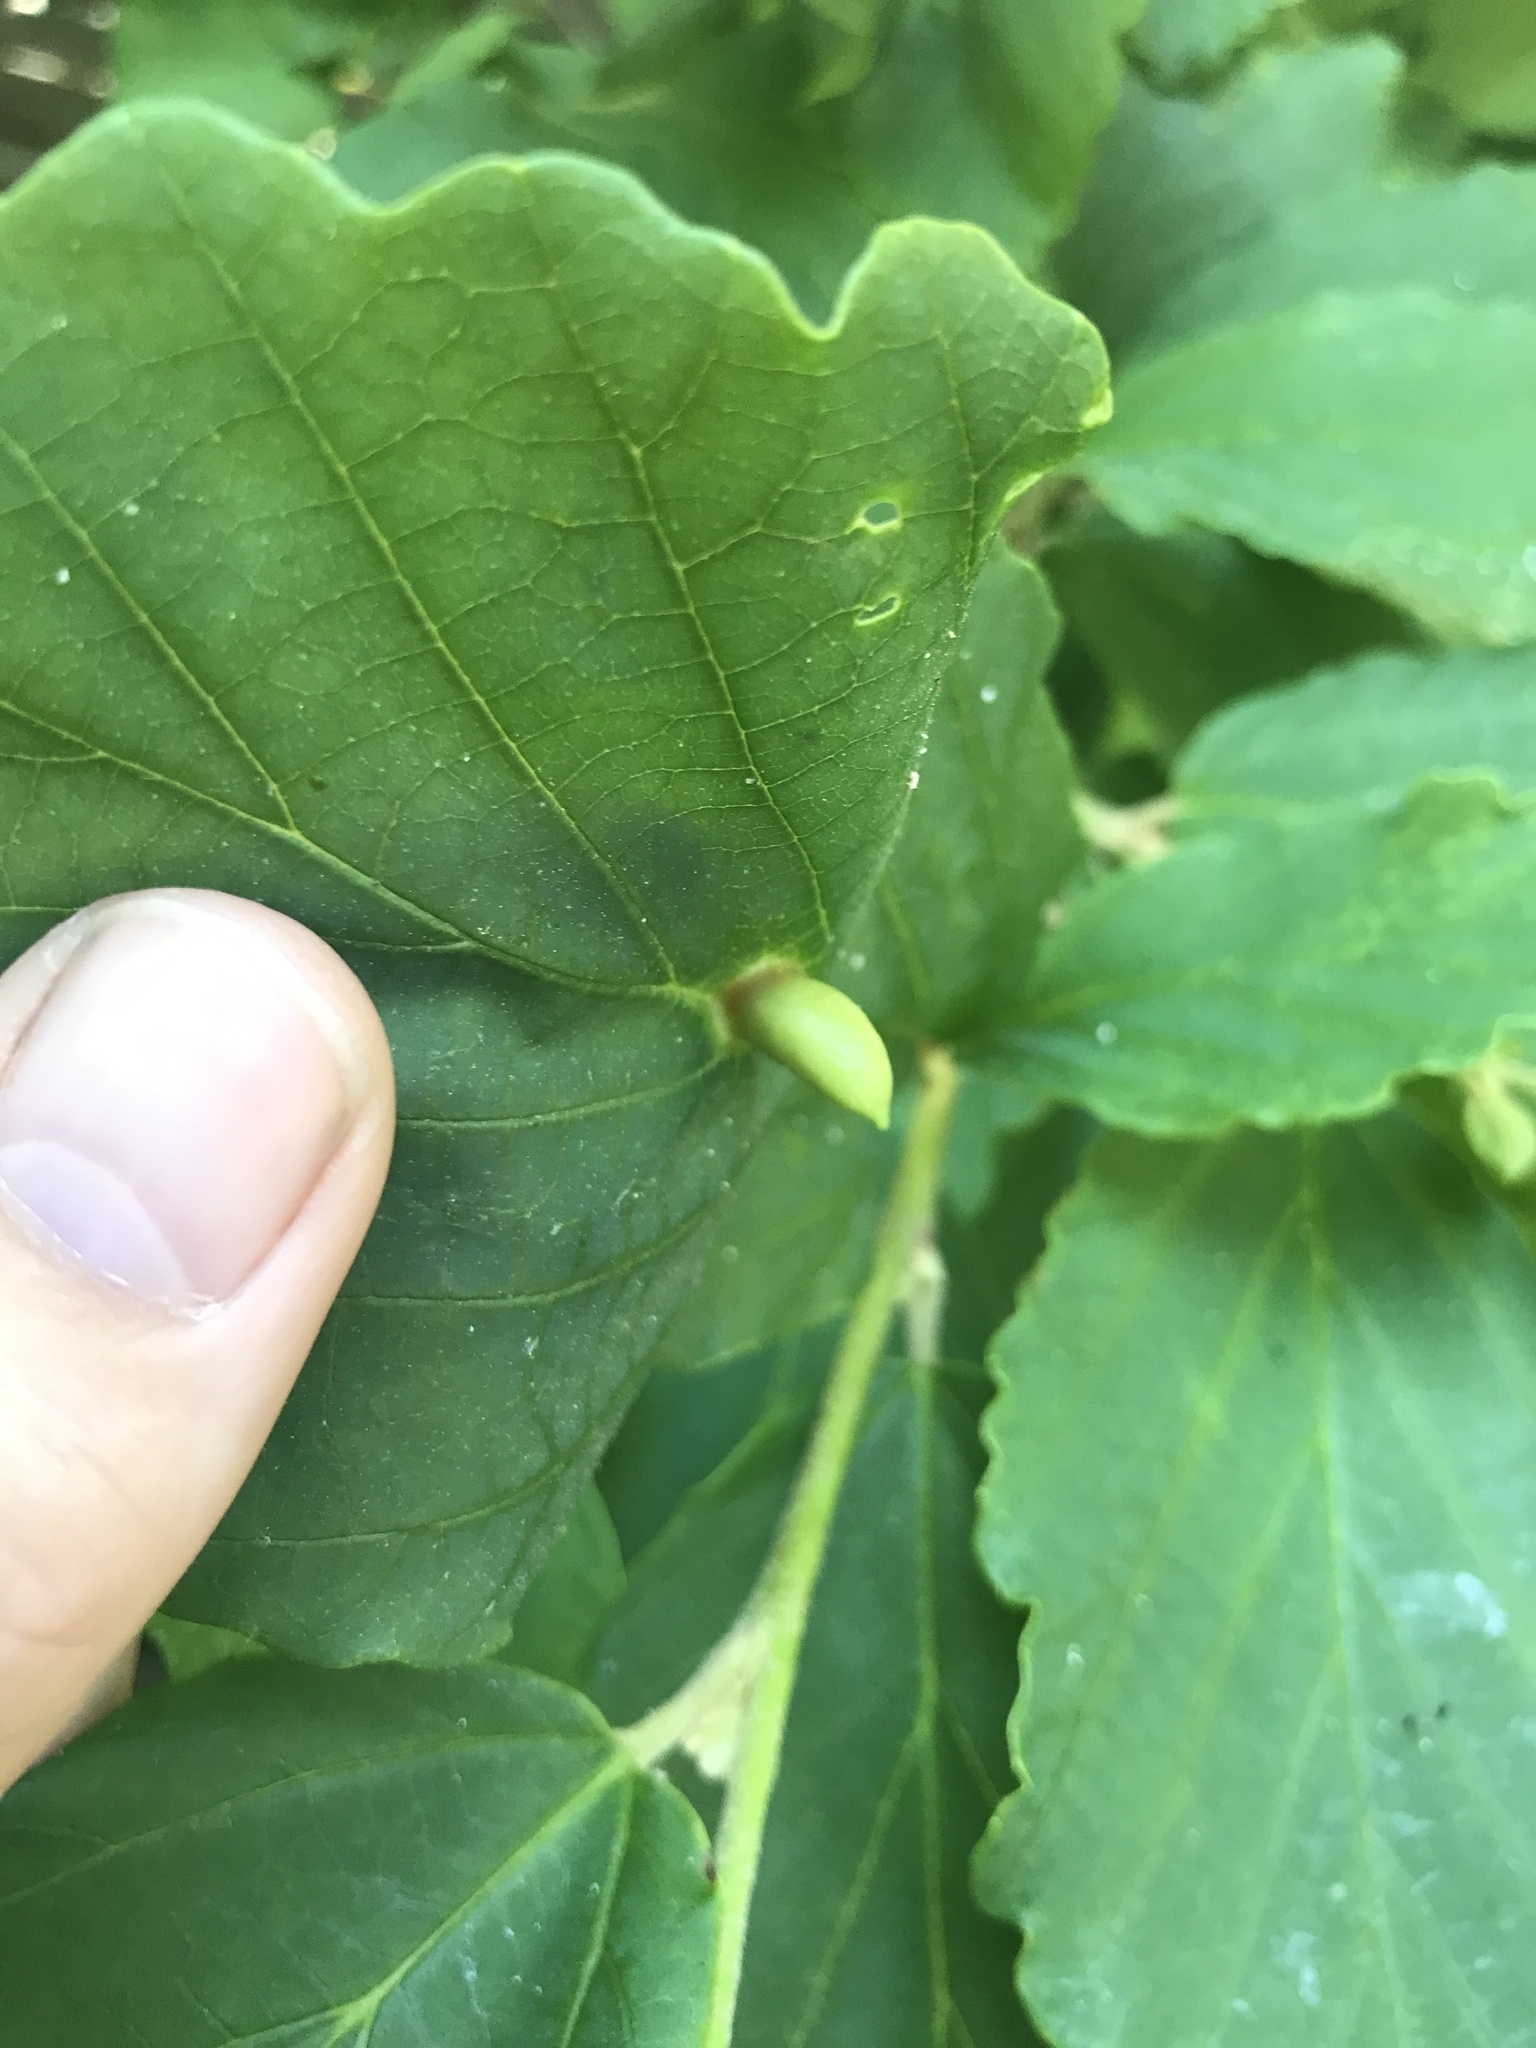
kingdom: Animalia
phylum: Arthropoda
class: Insecta
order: Hemiptera
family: Aphididae
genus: Hormaphis
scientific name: Hormaphis hamamelidis
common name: Witch-hazel cone gall aphid
